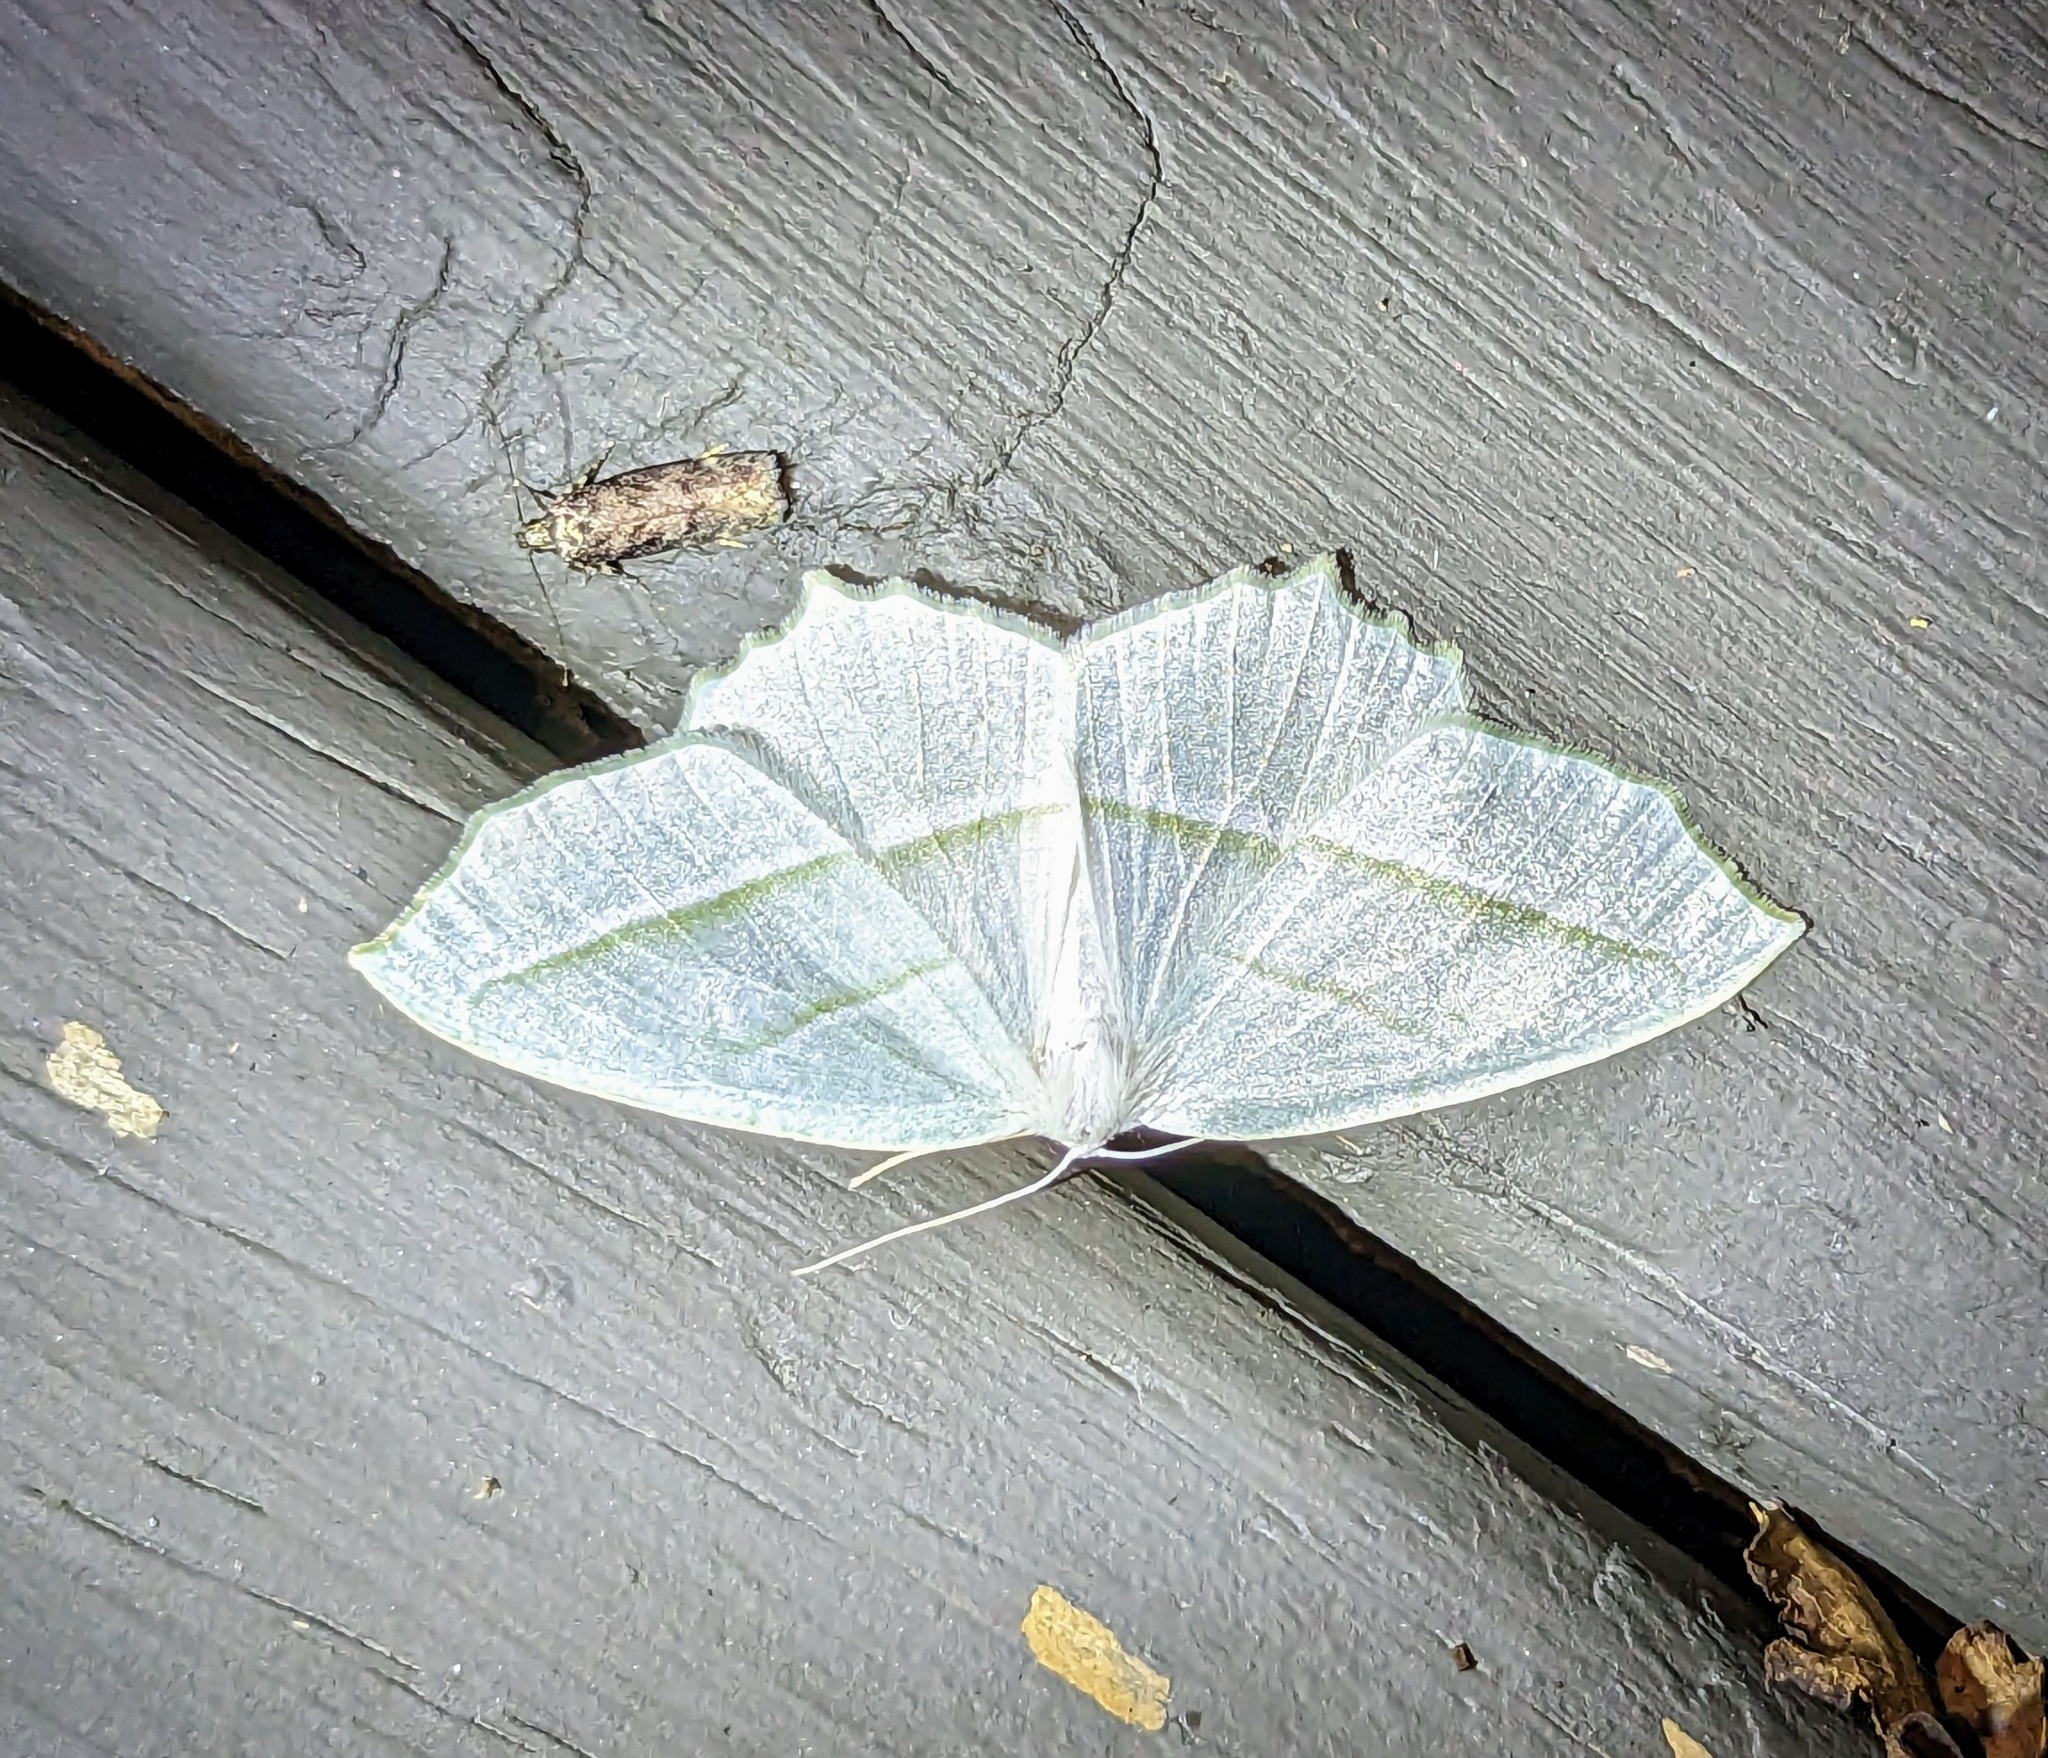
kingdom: Animalia
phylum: Arthropoda
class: Insecta
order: Lepidoptera
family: Geometridae
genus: Campaea
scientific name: Campaea perlata
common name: Fringed looper
